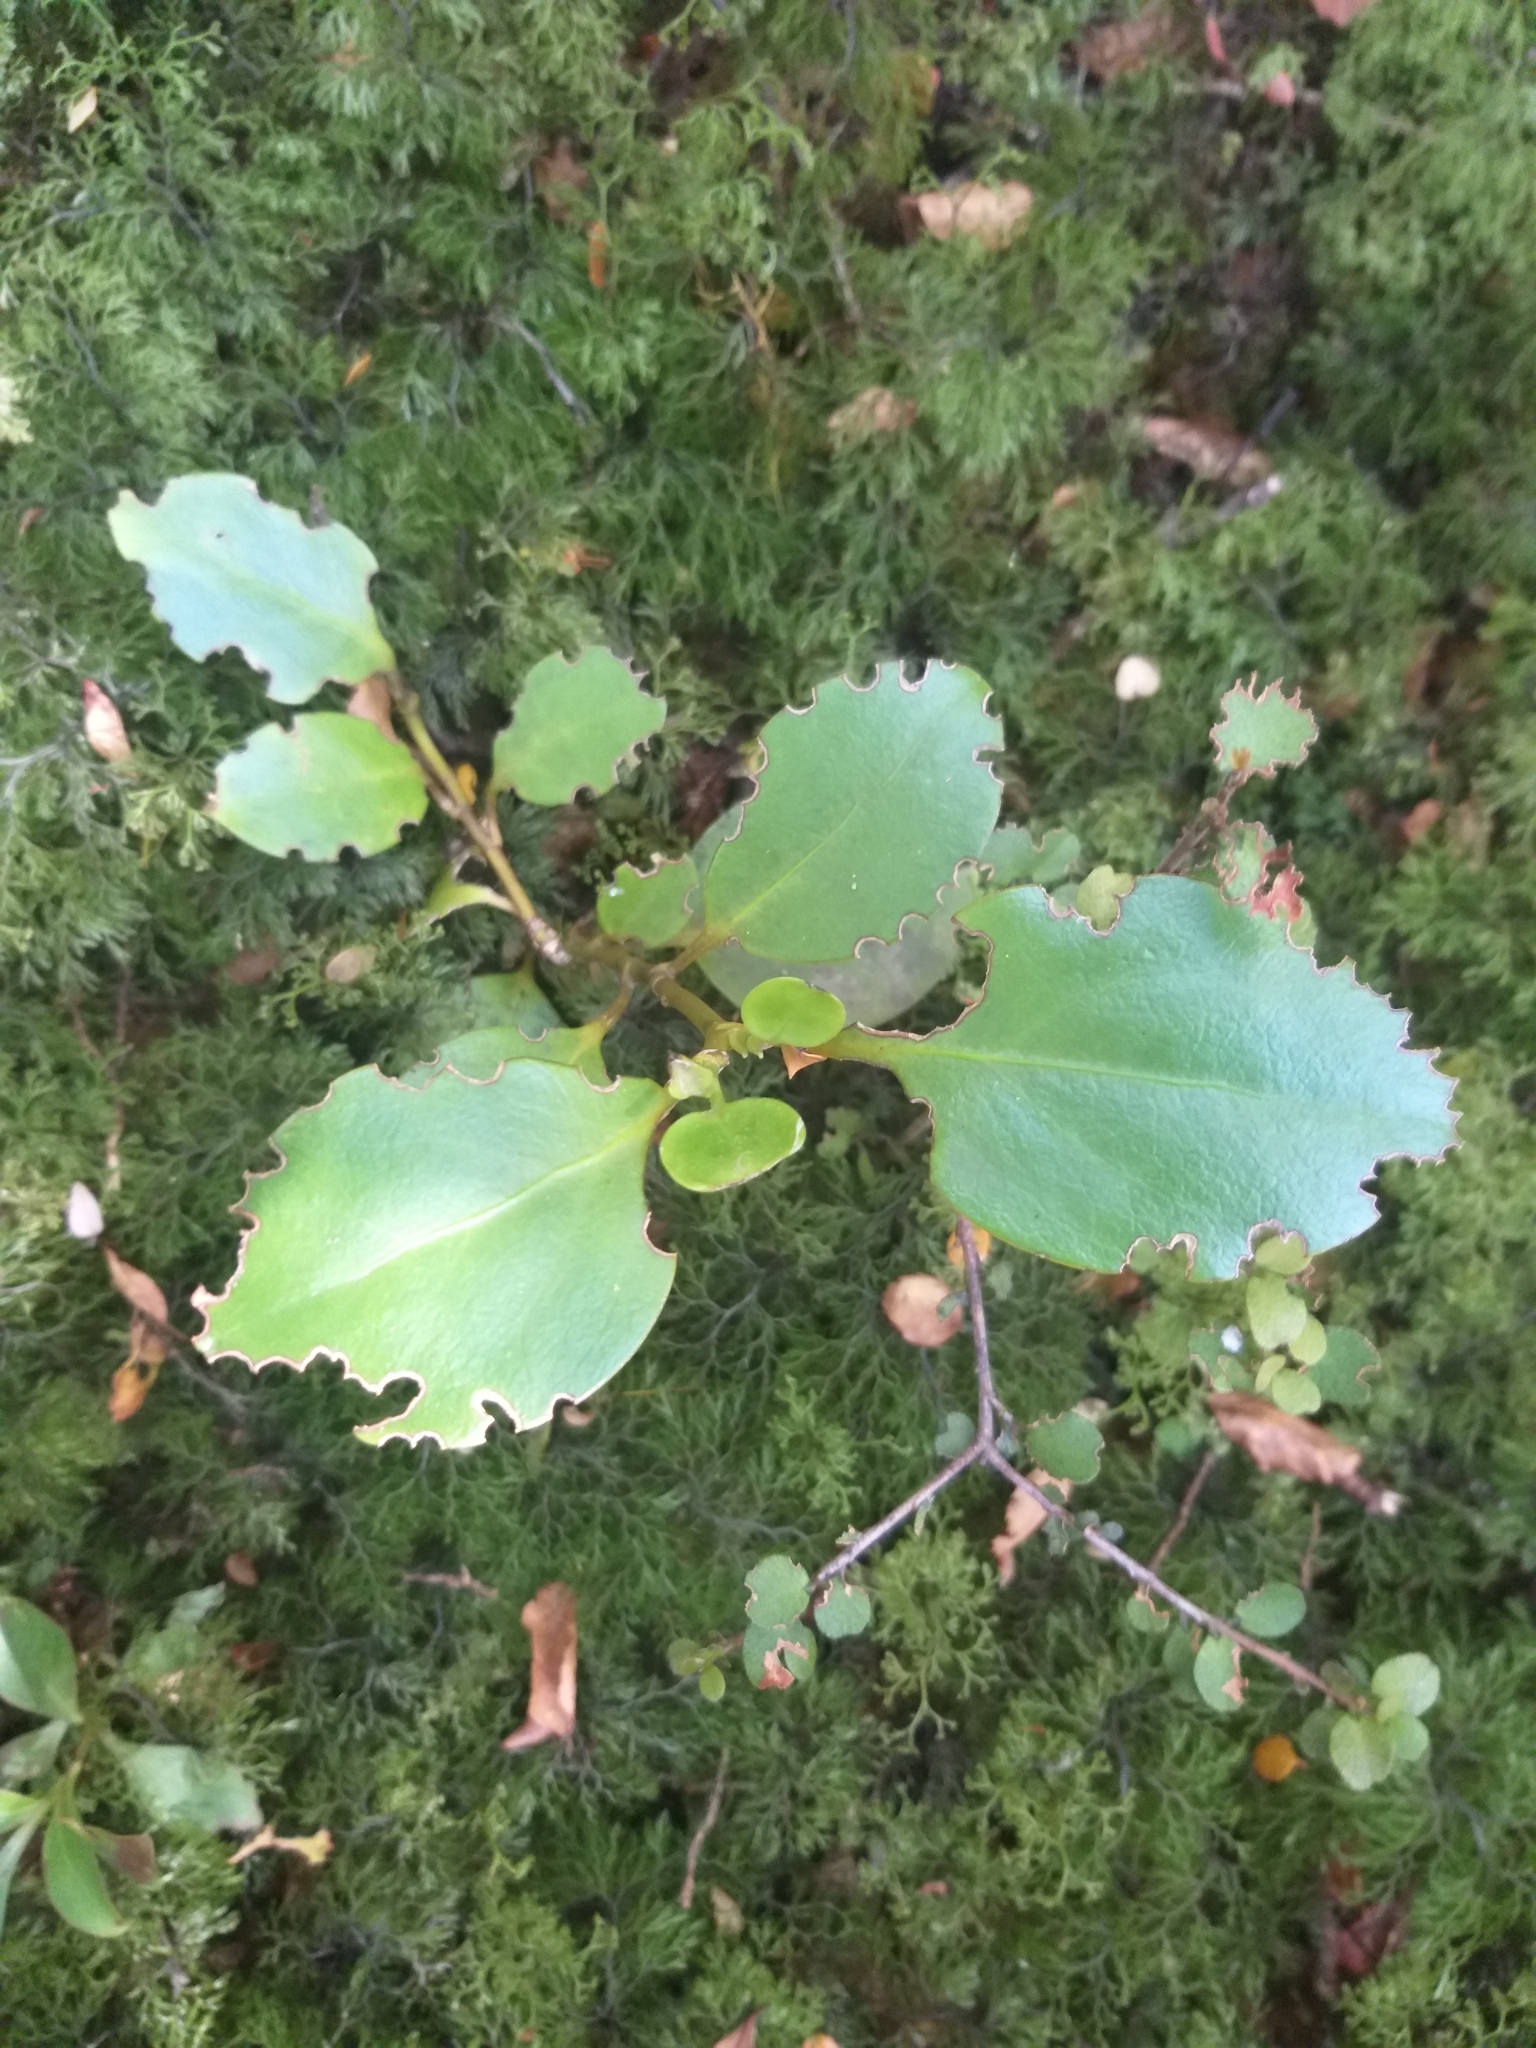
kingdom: Plantae
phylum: Tracheophyta
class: Magnoliopsida
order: Apiales
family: Griseliniaceae
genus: Griselinia
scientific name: Griselinia littoralis
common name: New zealand broadleaf
